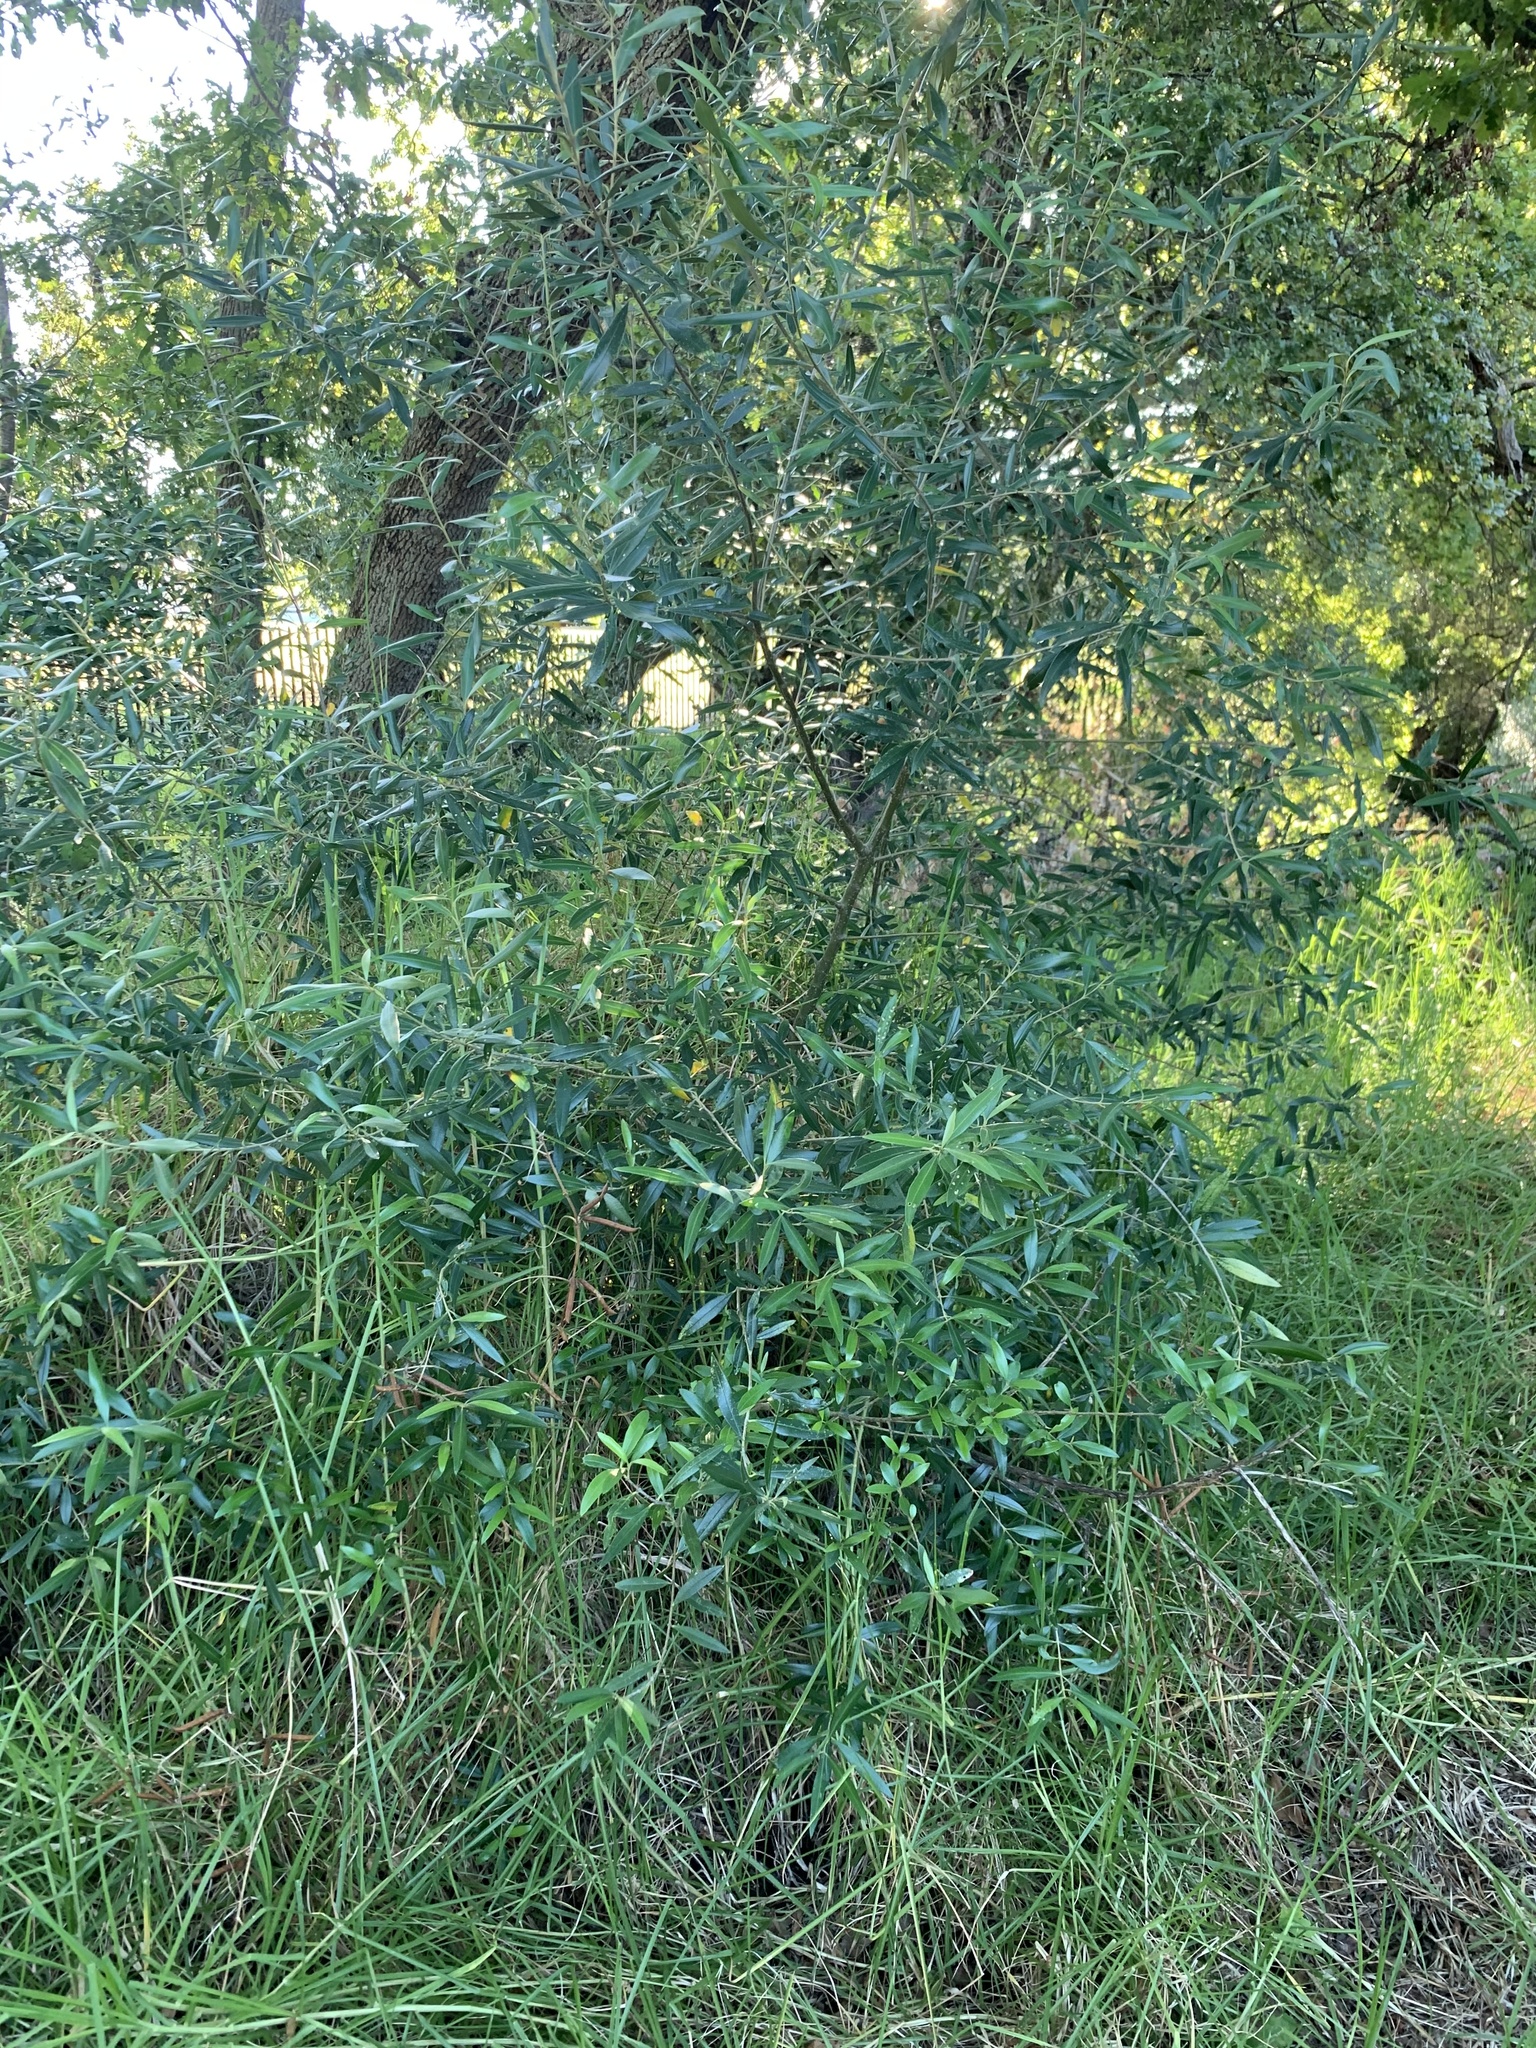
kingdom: Plantae
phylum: Tracheophyta
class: Magnoliopsida
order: Lamiales
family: Oleaceae
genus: Olea
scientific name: Olea europaea
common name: Olive
